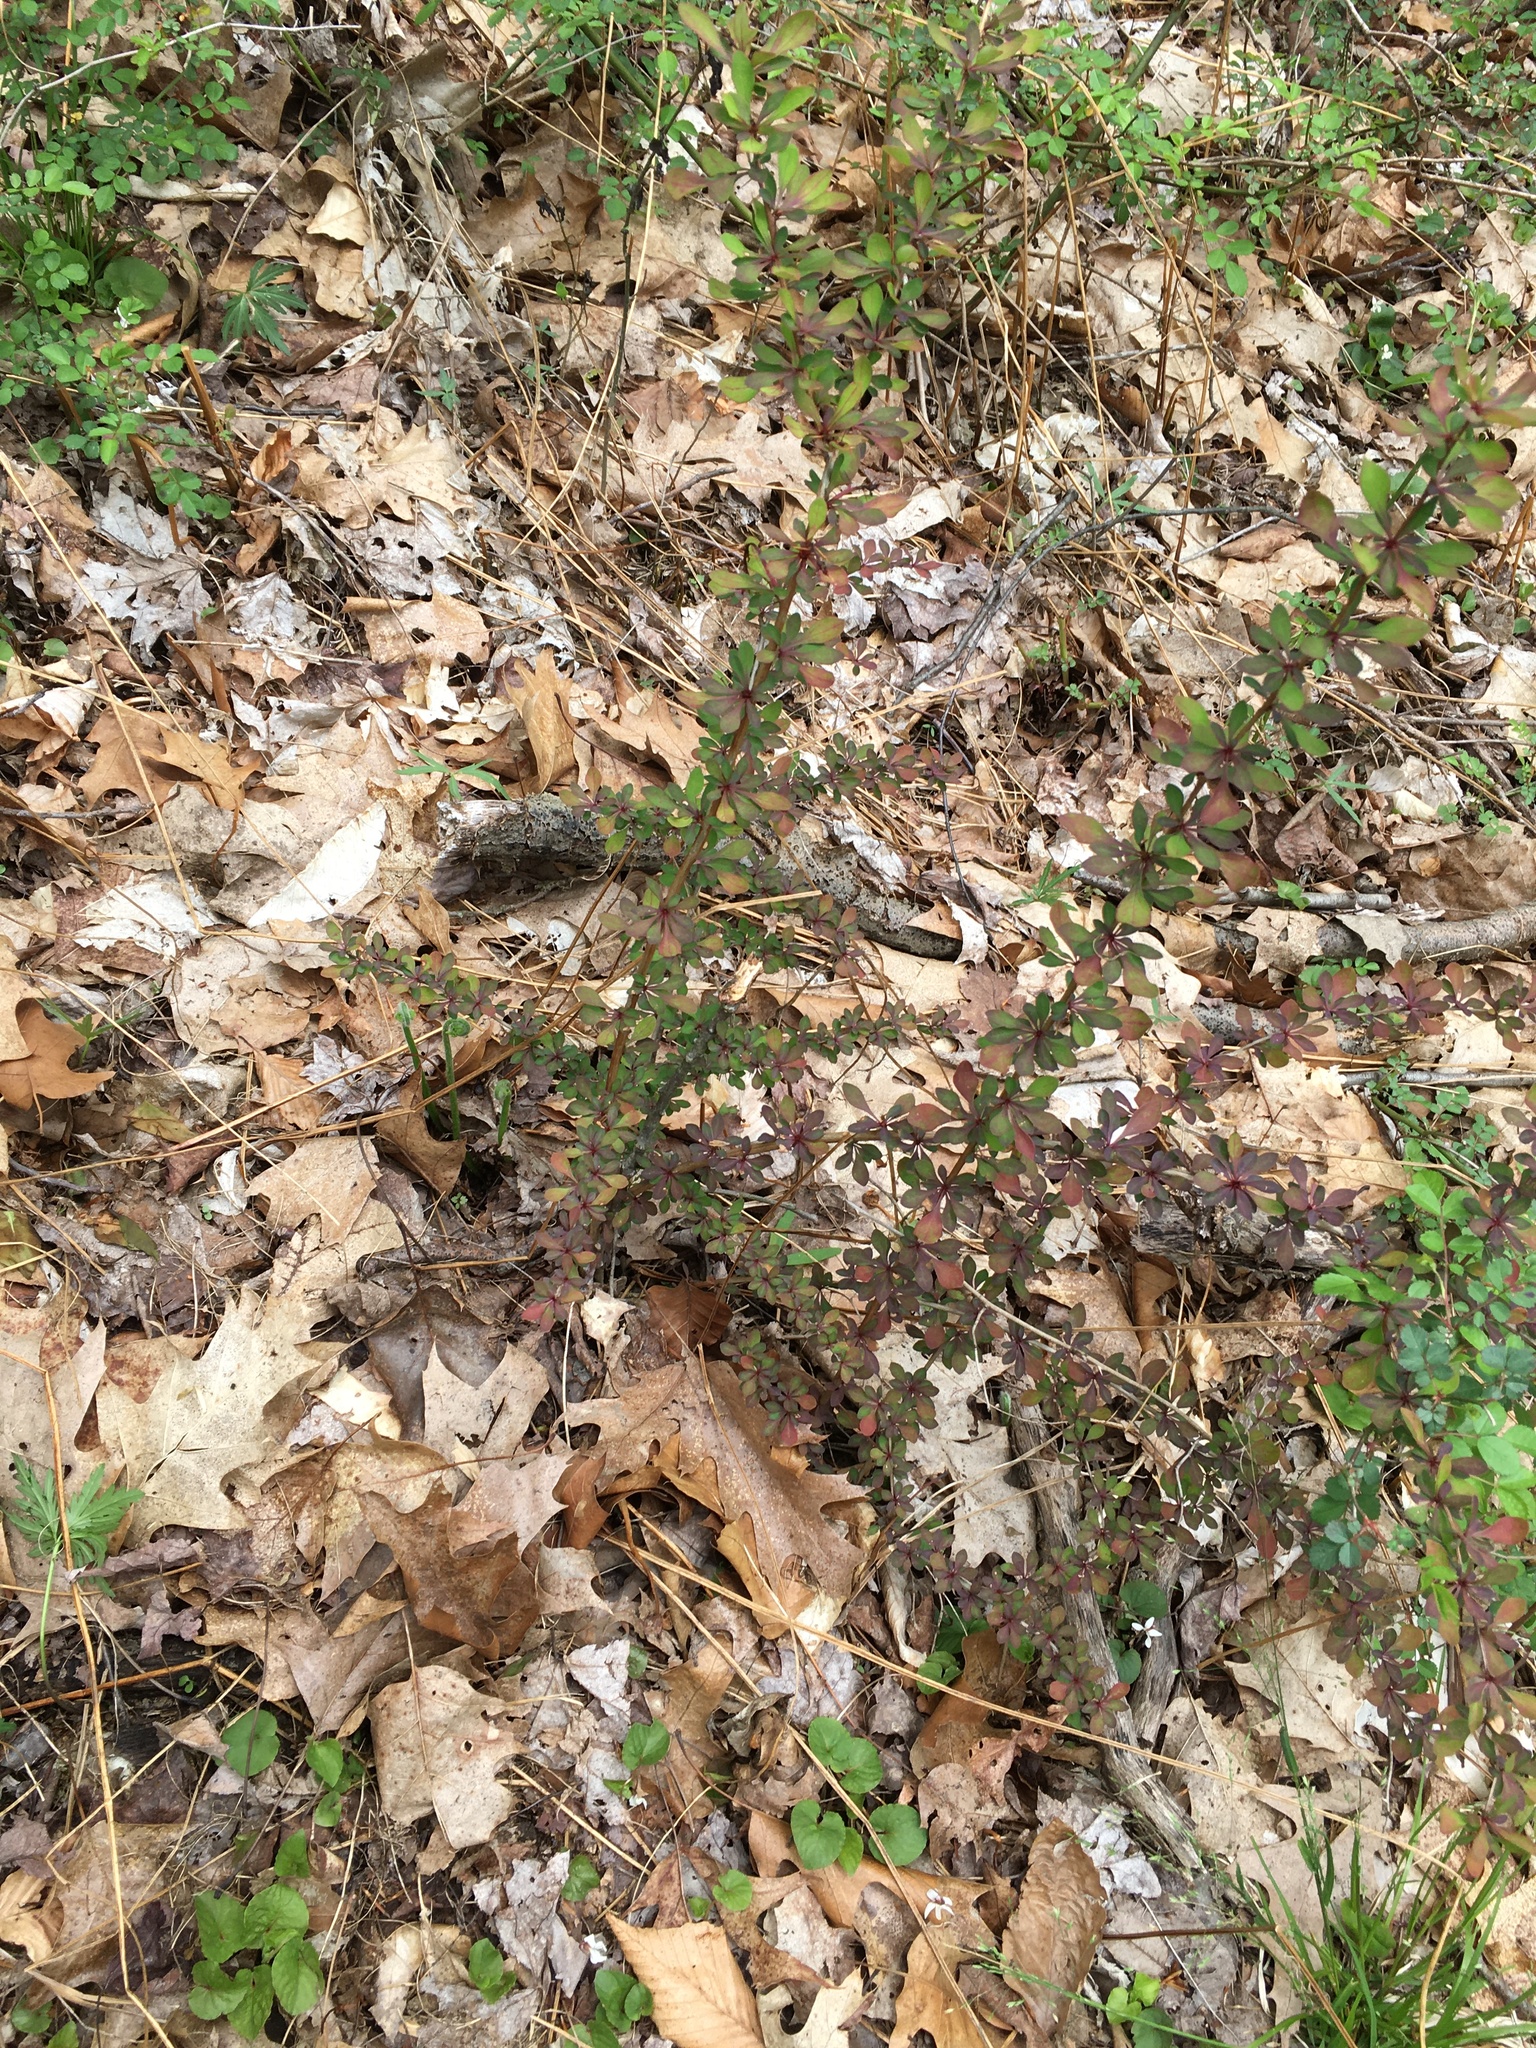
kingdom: Plantae
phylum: Tracheophyta
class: Magnoliopsida
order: Ranunculales
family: Berberidaceae
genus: Berberis
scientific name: Berberis thunbergii
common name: Japanese barberry
